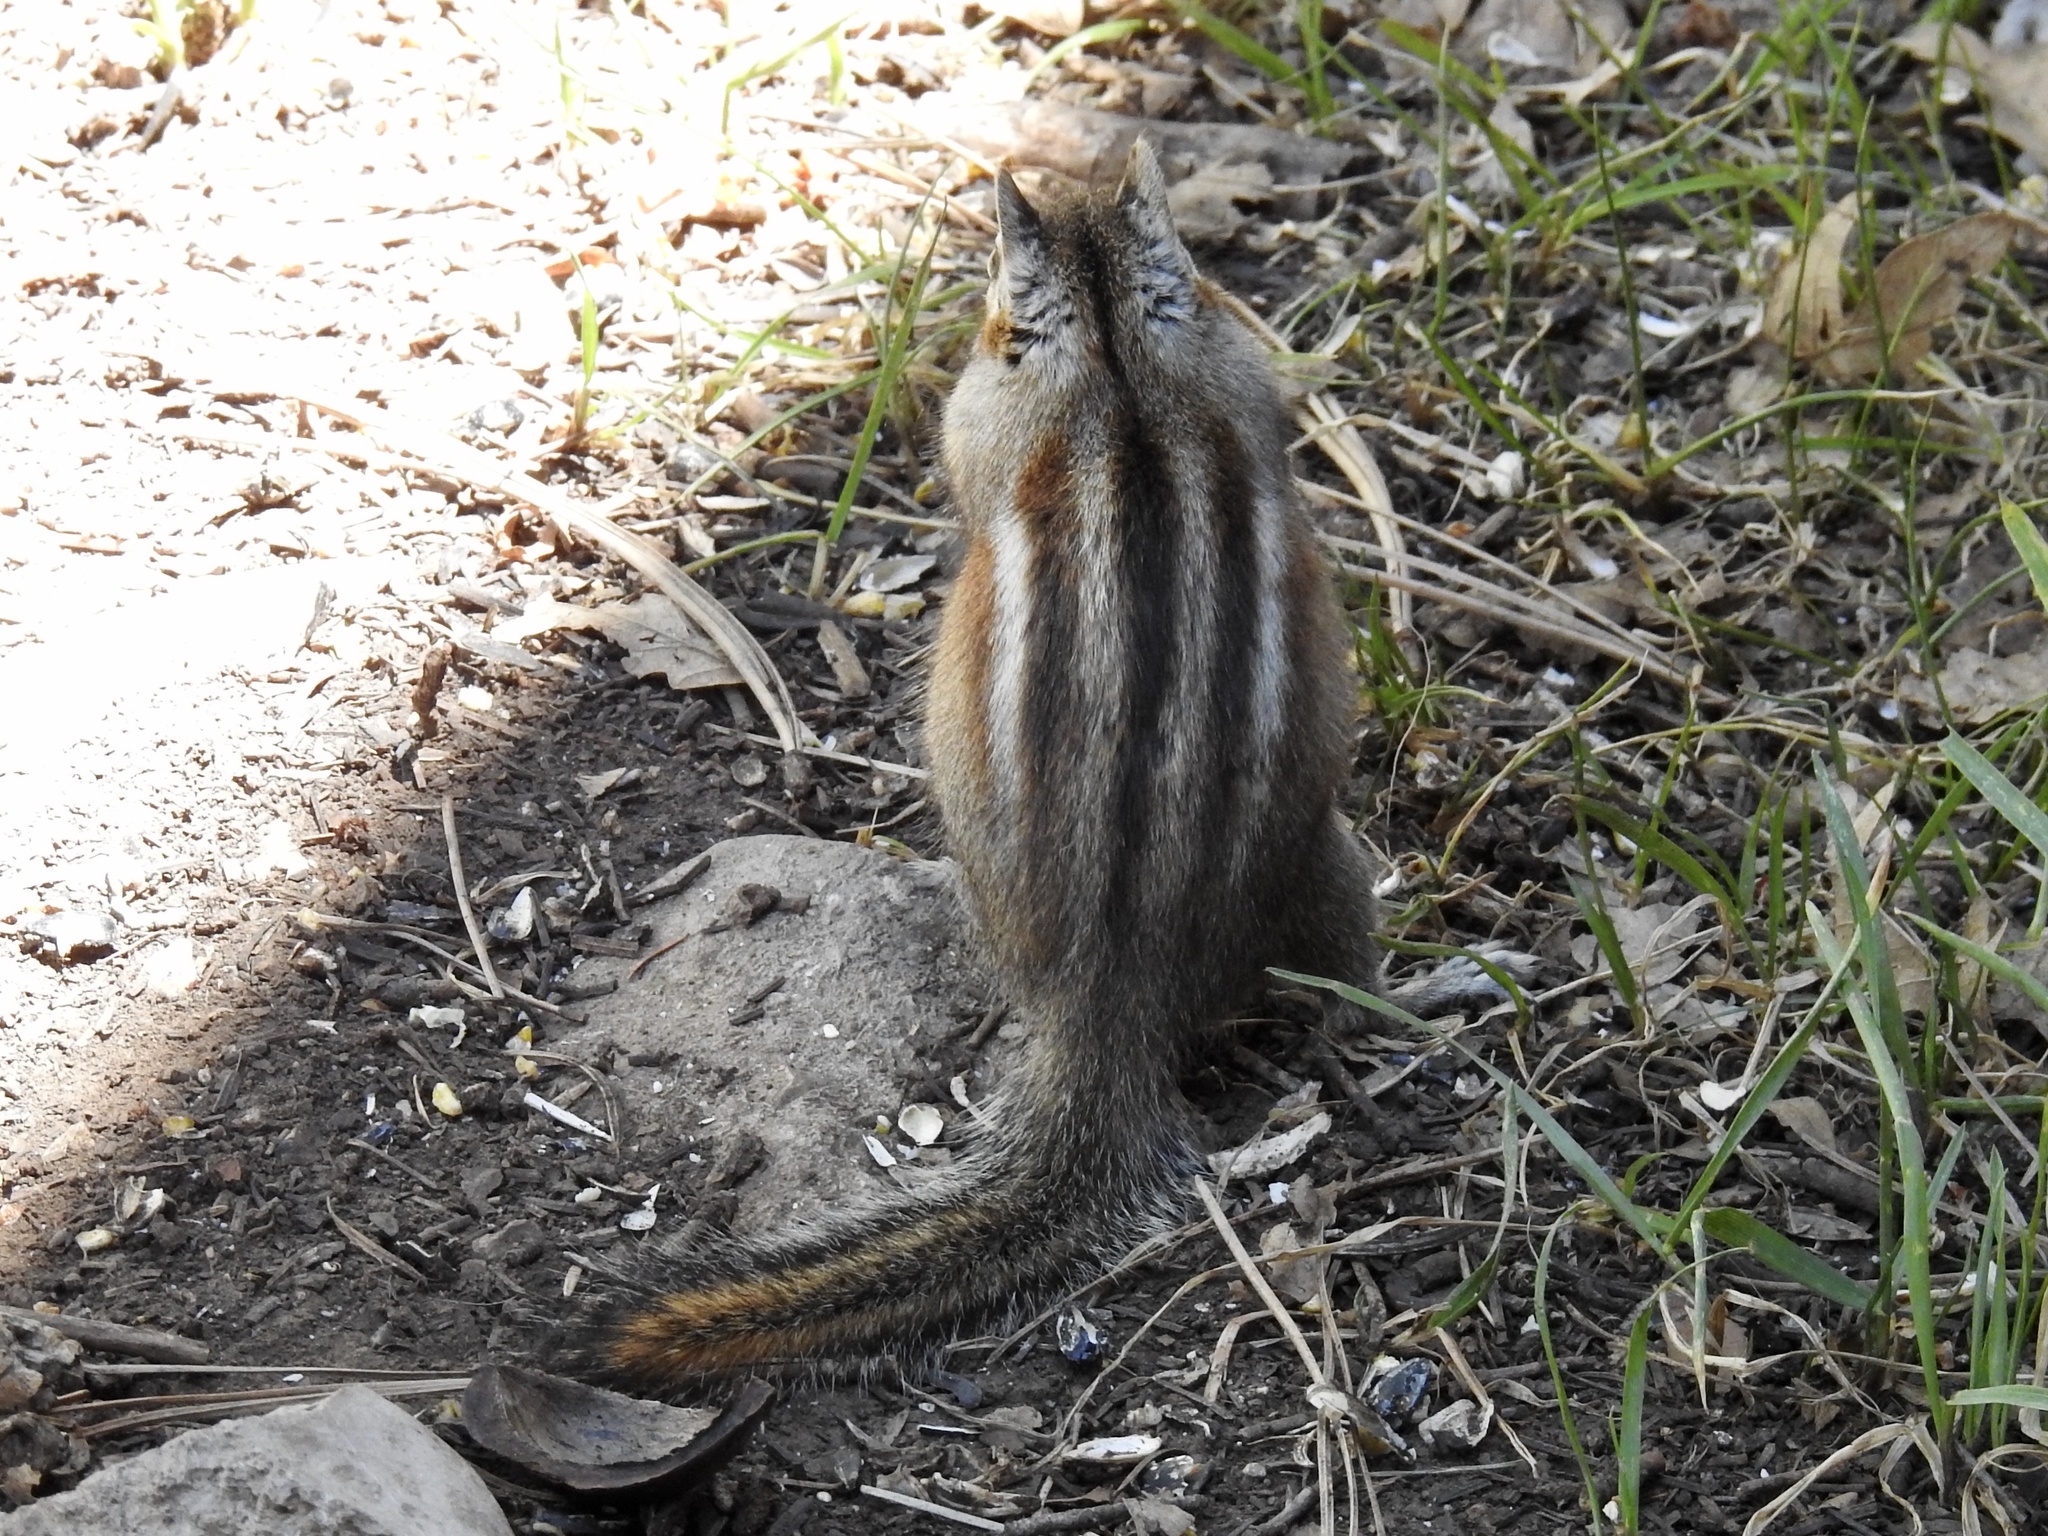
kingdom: Animalia
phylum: Chordata
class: Mammalia
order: Rodentia
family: Sciuridae
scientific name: Sciuridae
